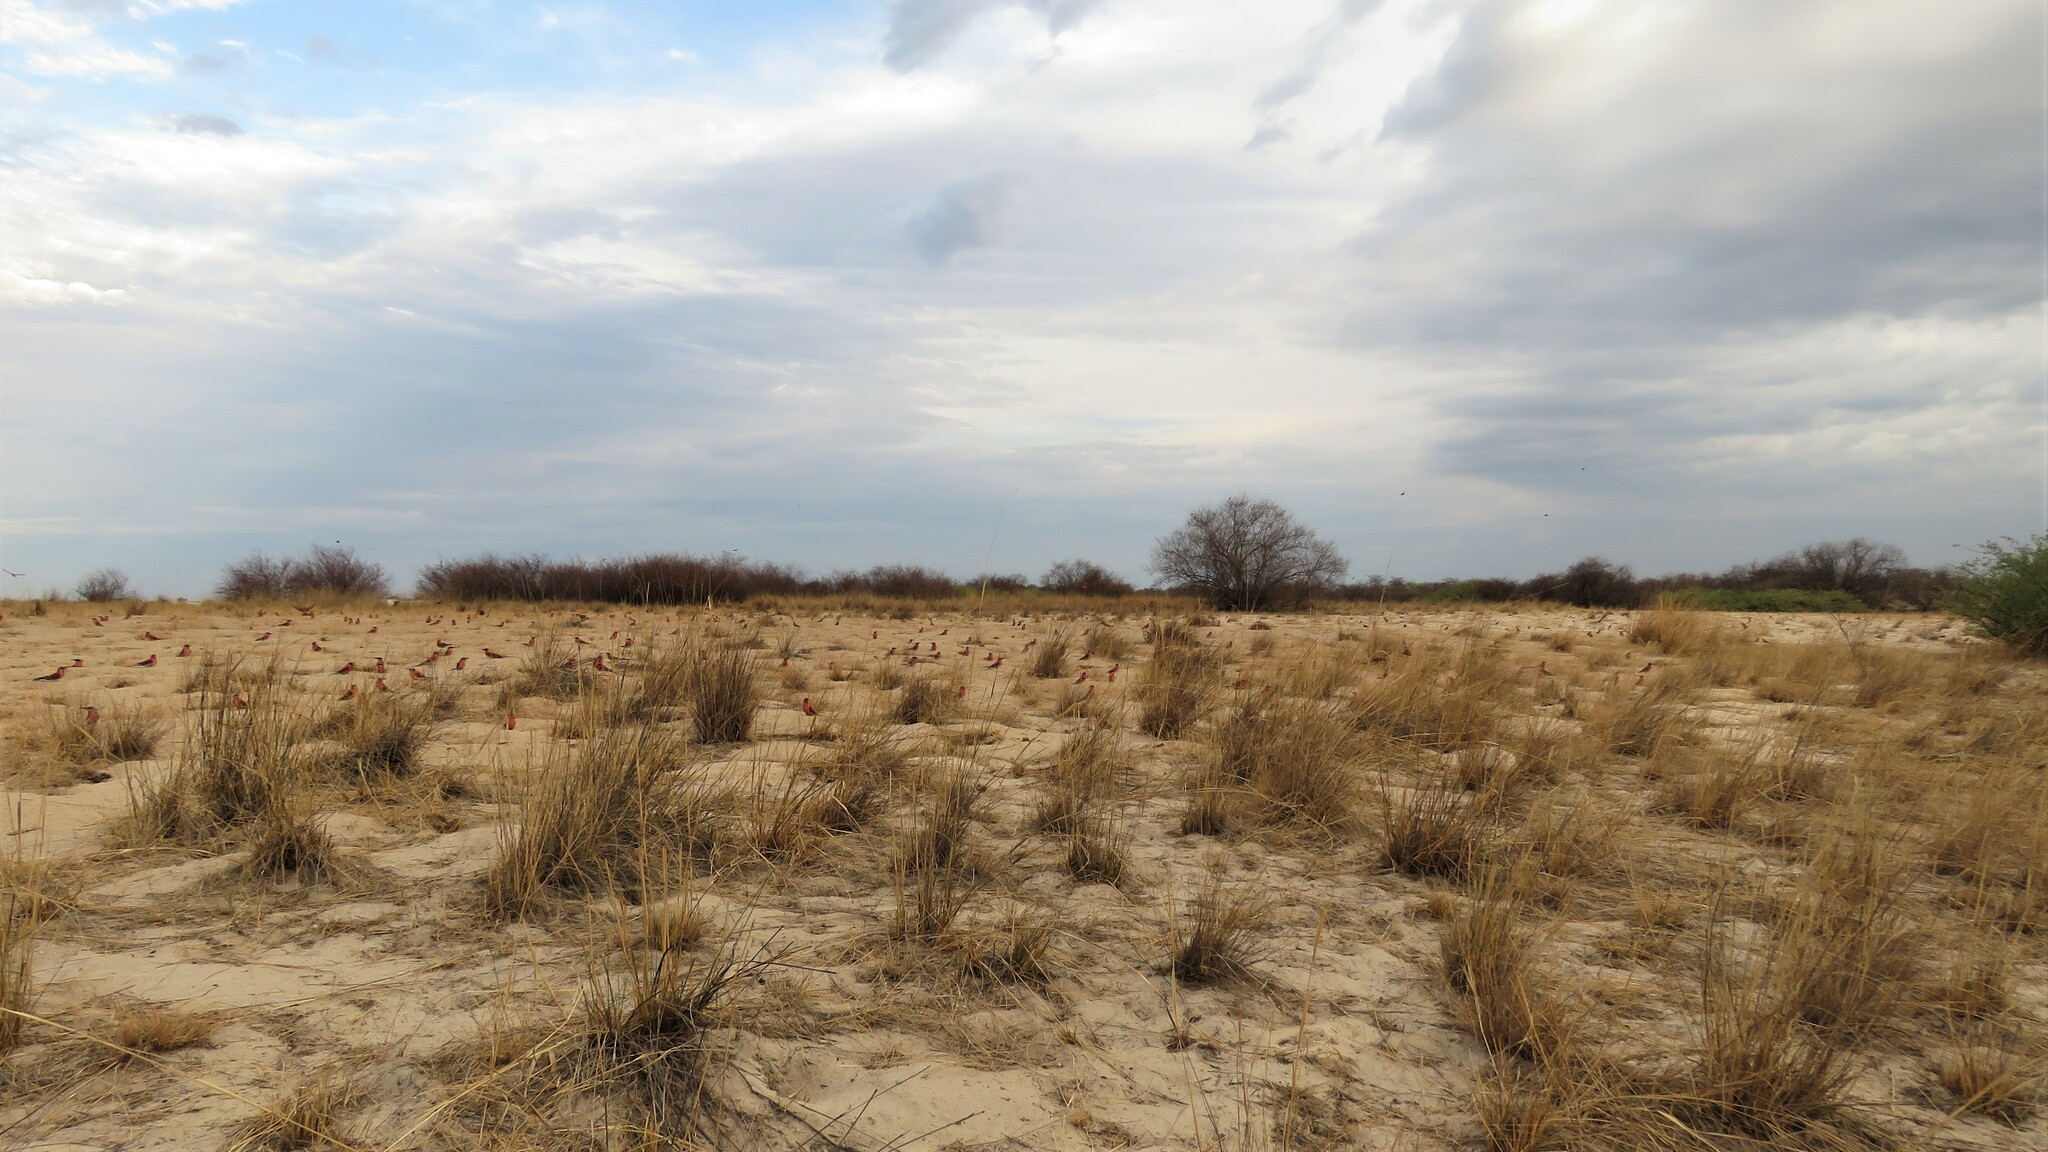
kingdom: Animalia
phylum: Chordata
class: Aves
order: Coraciiformes
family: Meropidae
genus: Merops
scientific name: Merops nubicoides
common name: Southern carmine bee-eater
